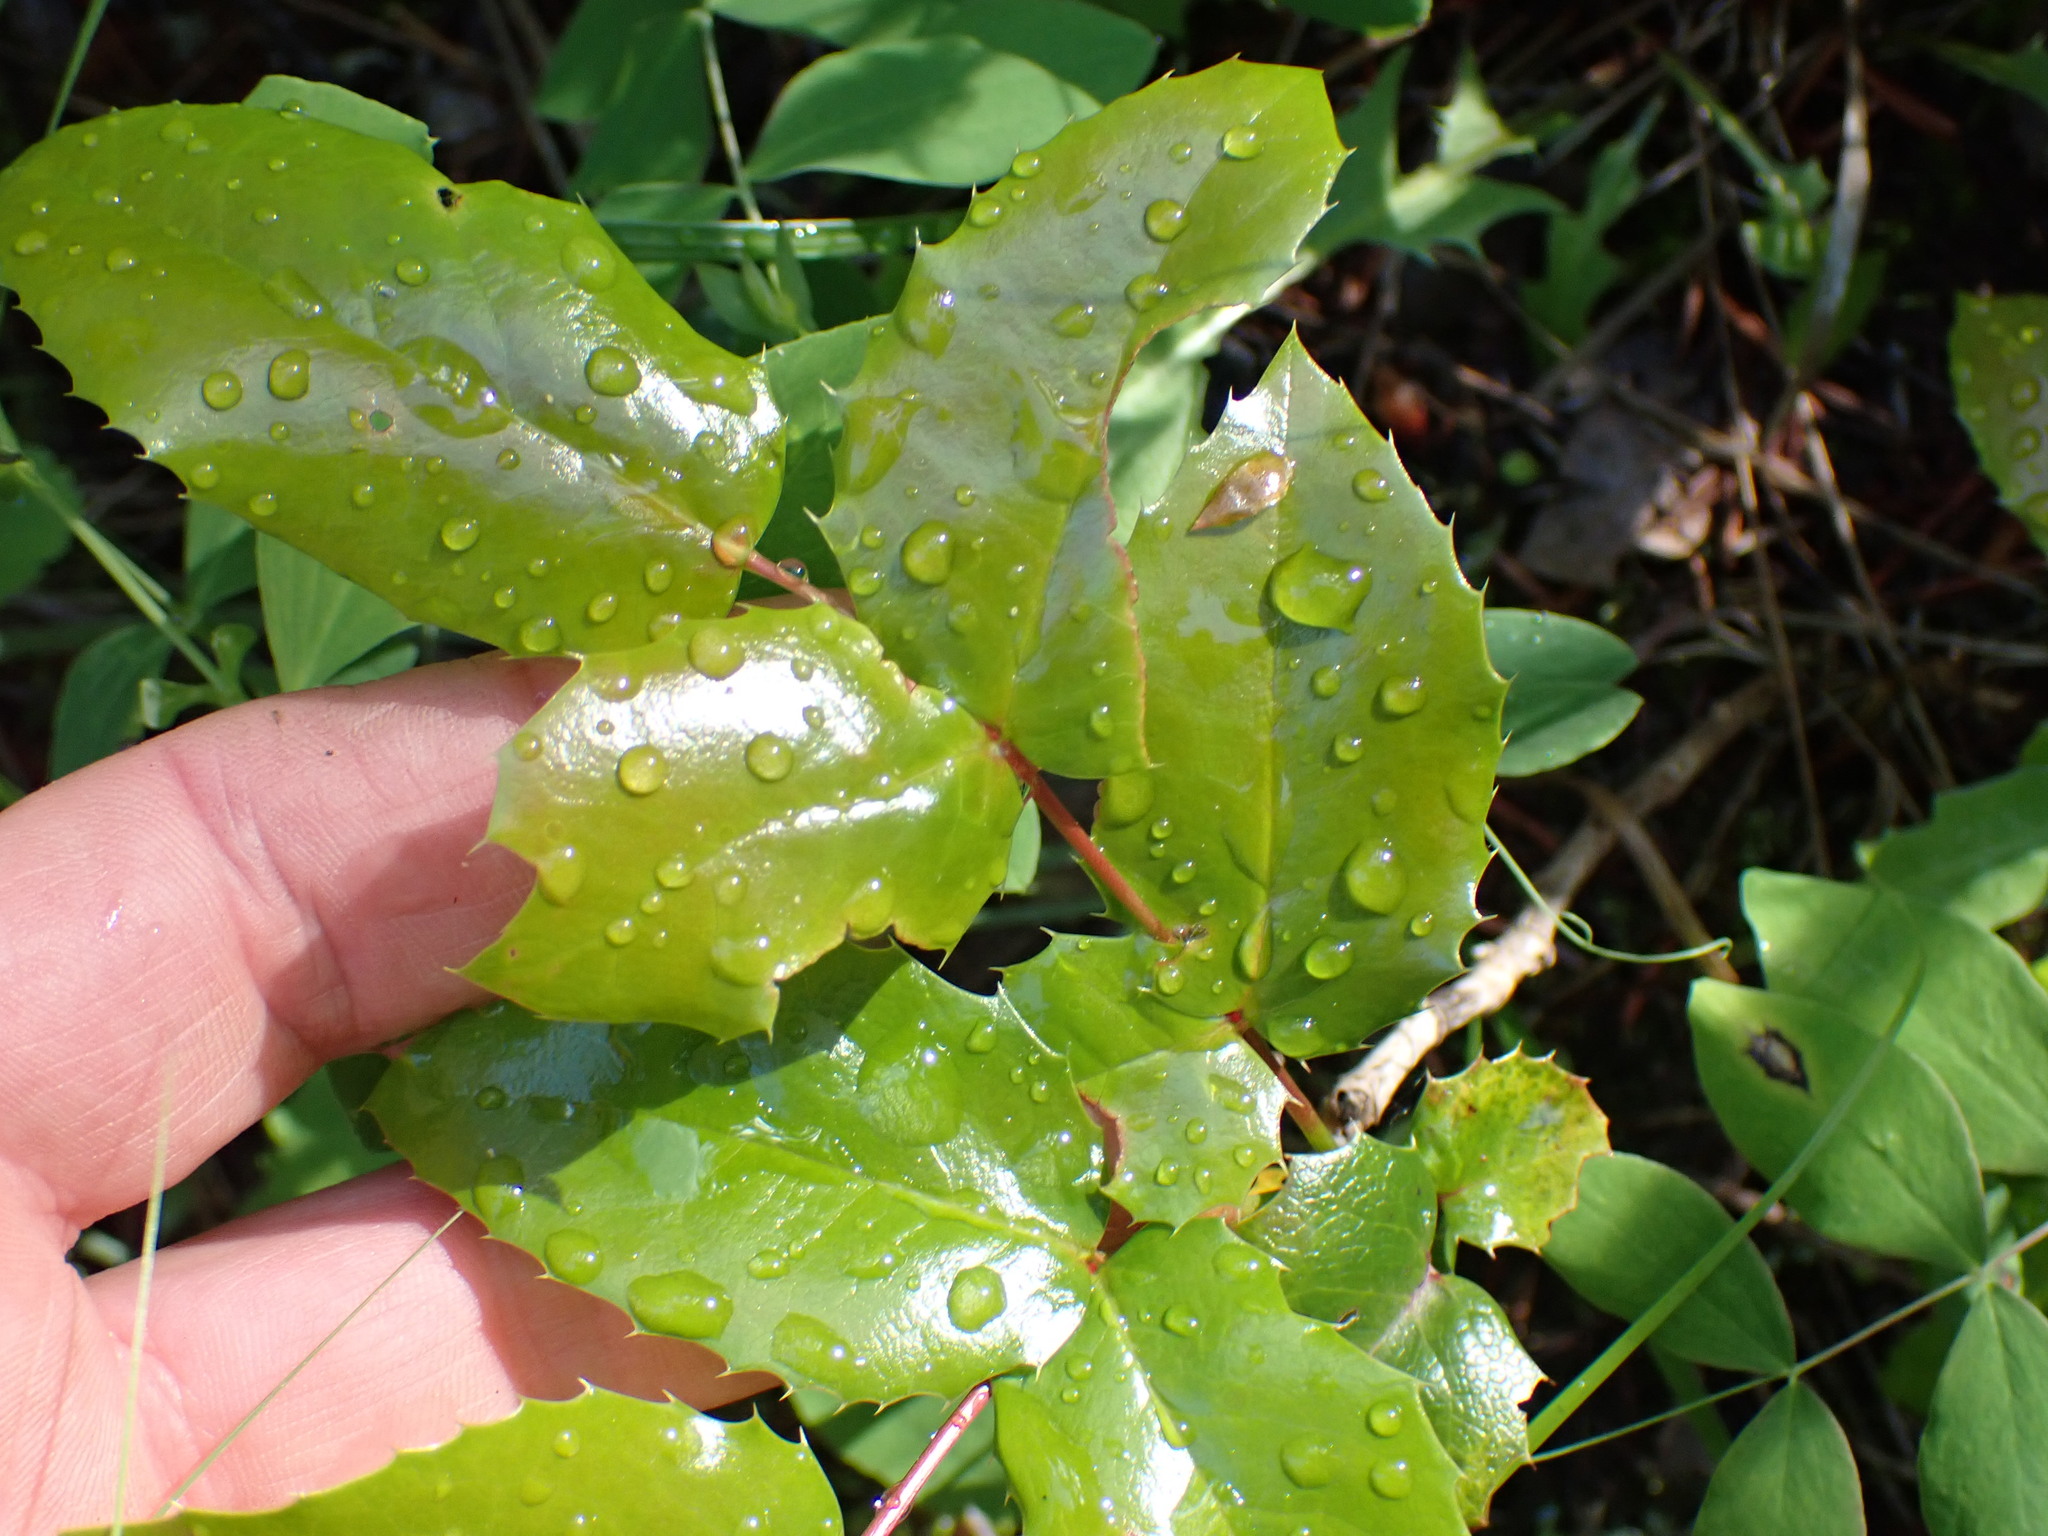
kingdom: Plantae
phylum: Tracheophyta
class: Magnoliopsida
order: Ranunculales
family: Berberidaceae
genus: Mahonia
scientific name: Mahonia aquifolium
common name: Oregon-grape
